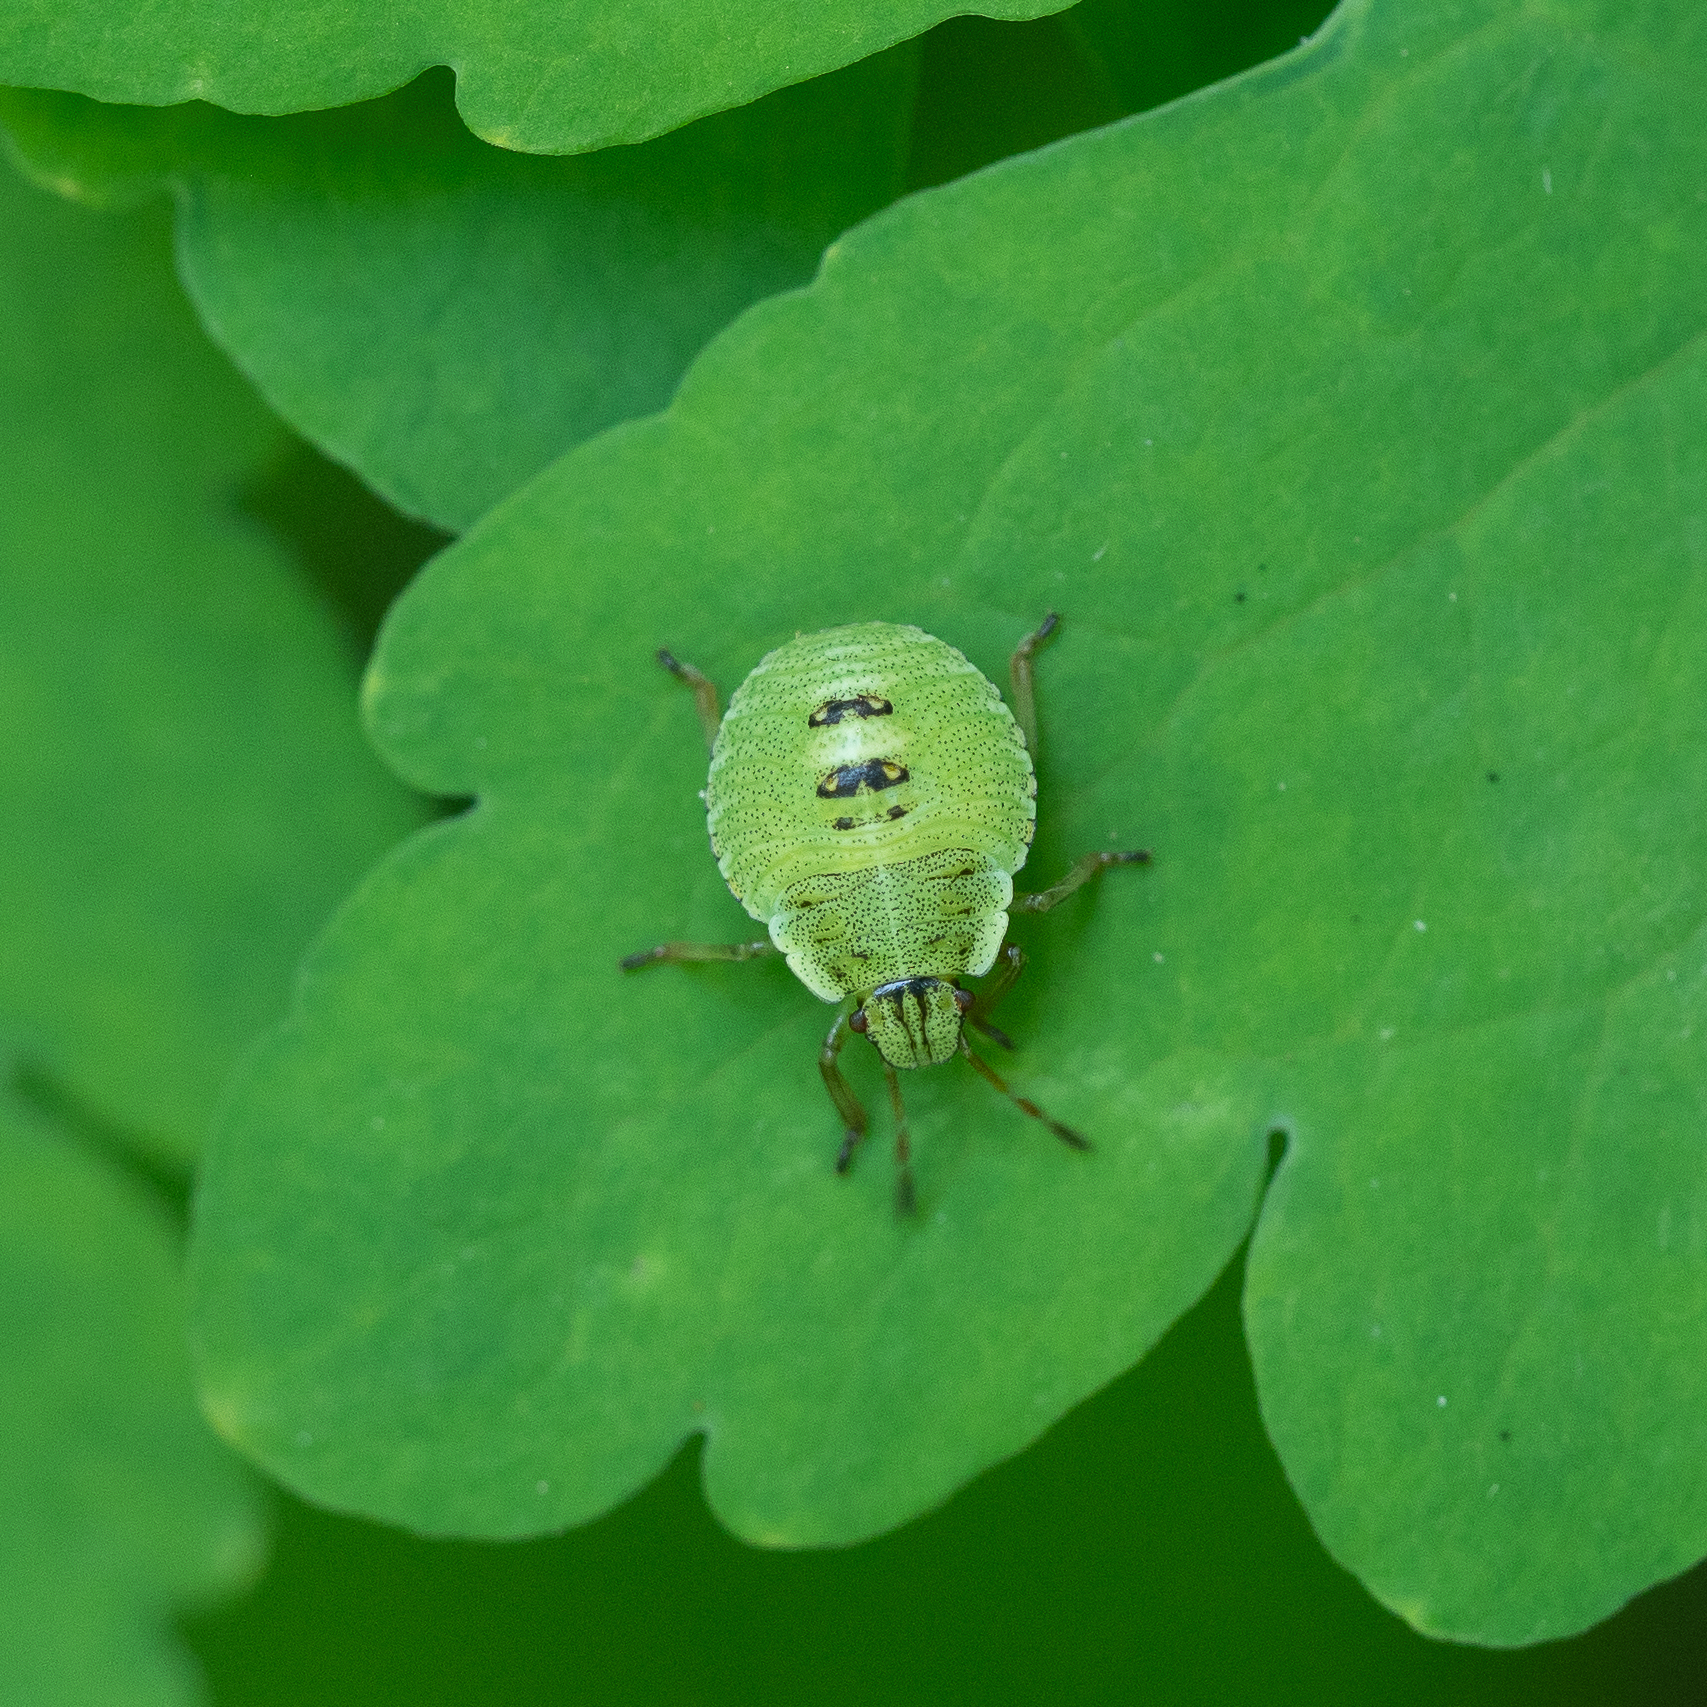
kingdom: Animalia
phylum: Arthropoda
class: Insecta
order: Hemiptera
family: Pentatomidae
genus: Palomena
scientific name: Palomena prasina
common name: Green shieldbug
